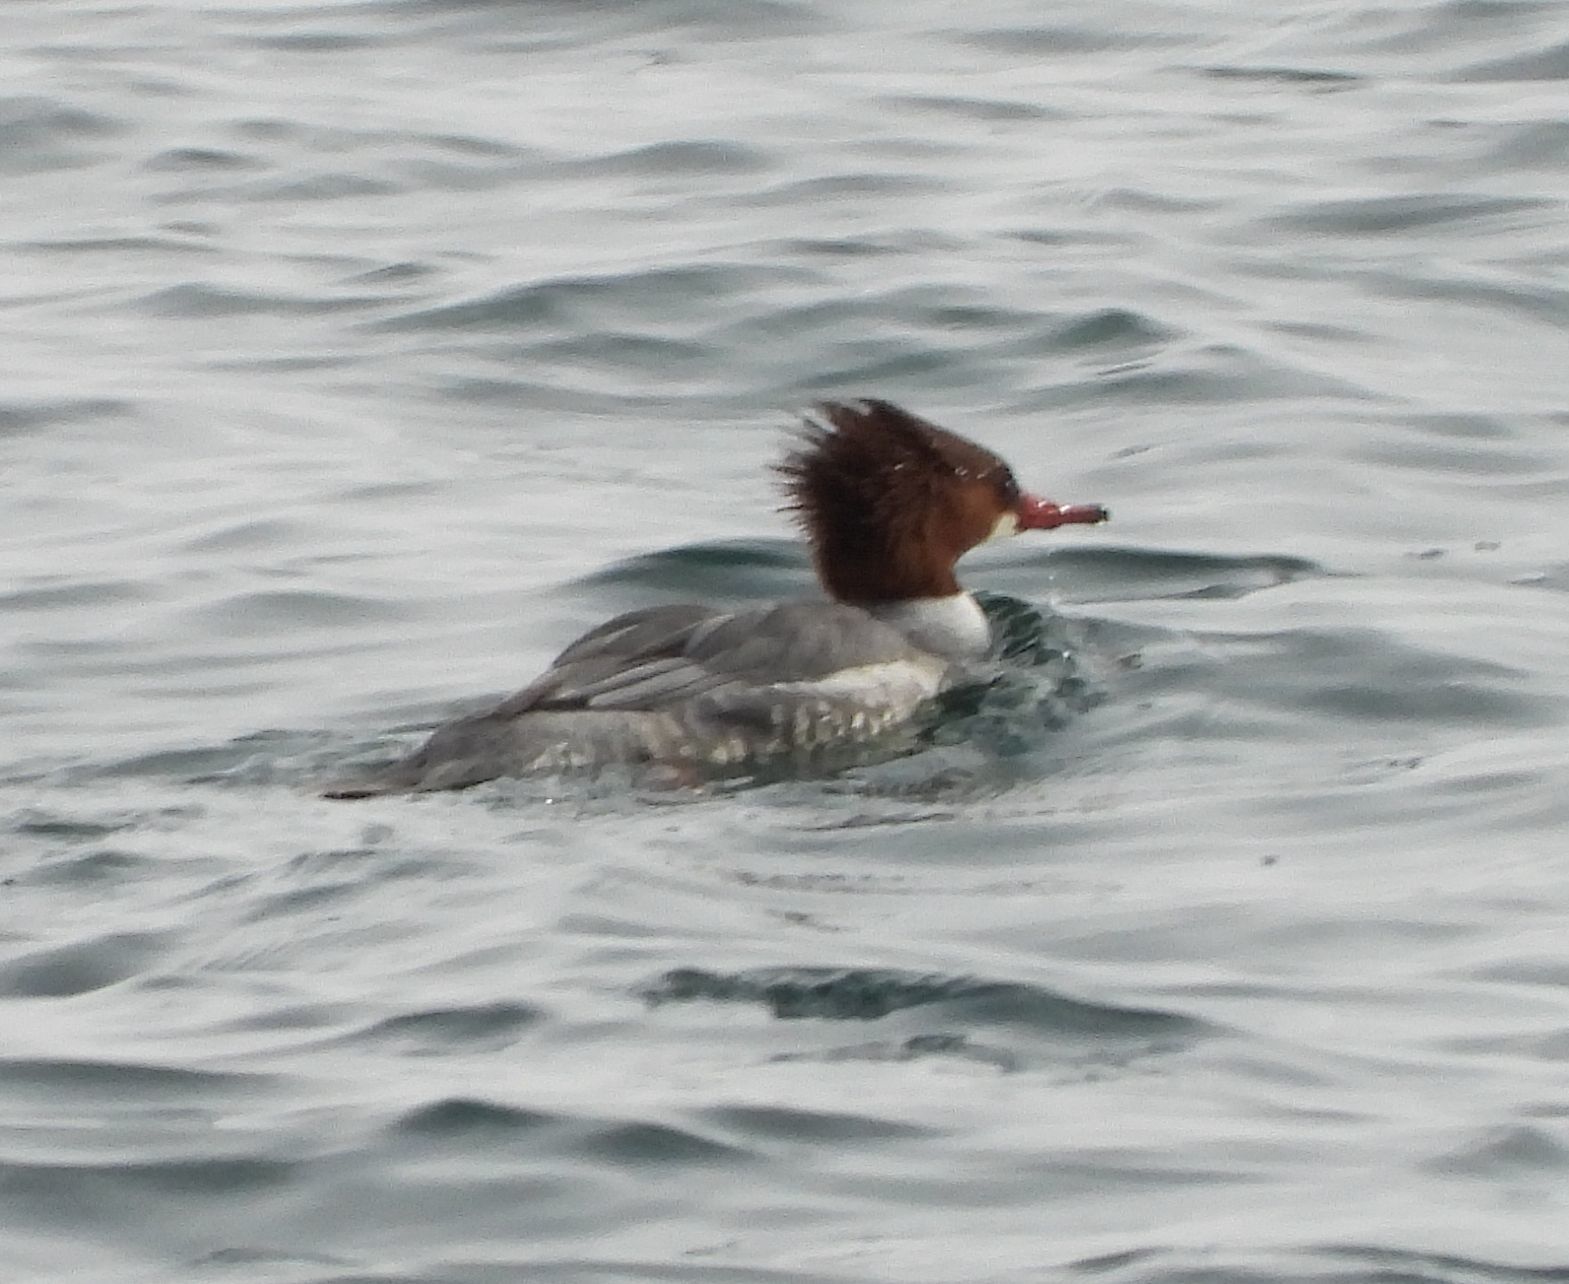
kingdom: Animalia
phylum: Chordata
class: Aves
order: Anseriformes
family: Anatidae
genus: Mergus
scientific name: Mergus merganser
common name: Common merganser
